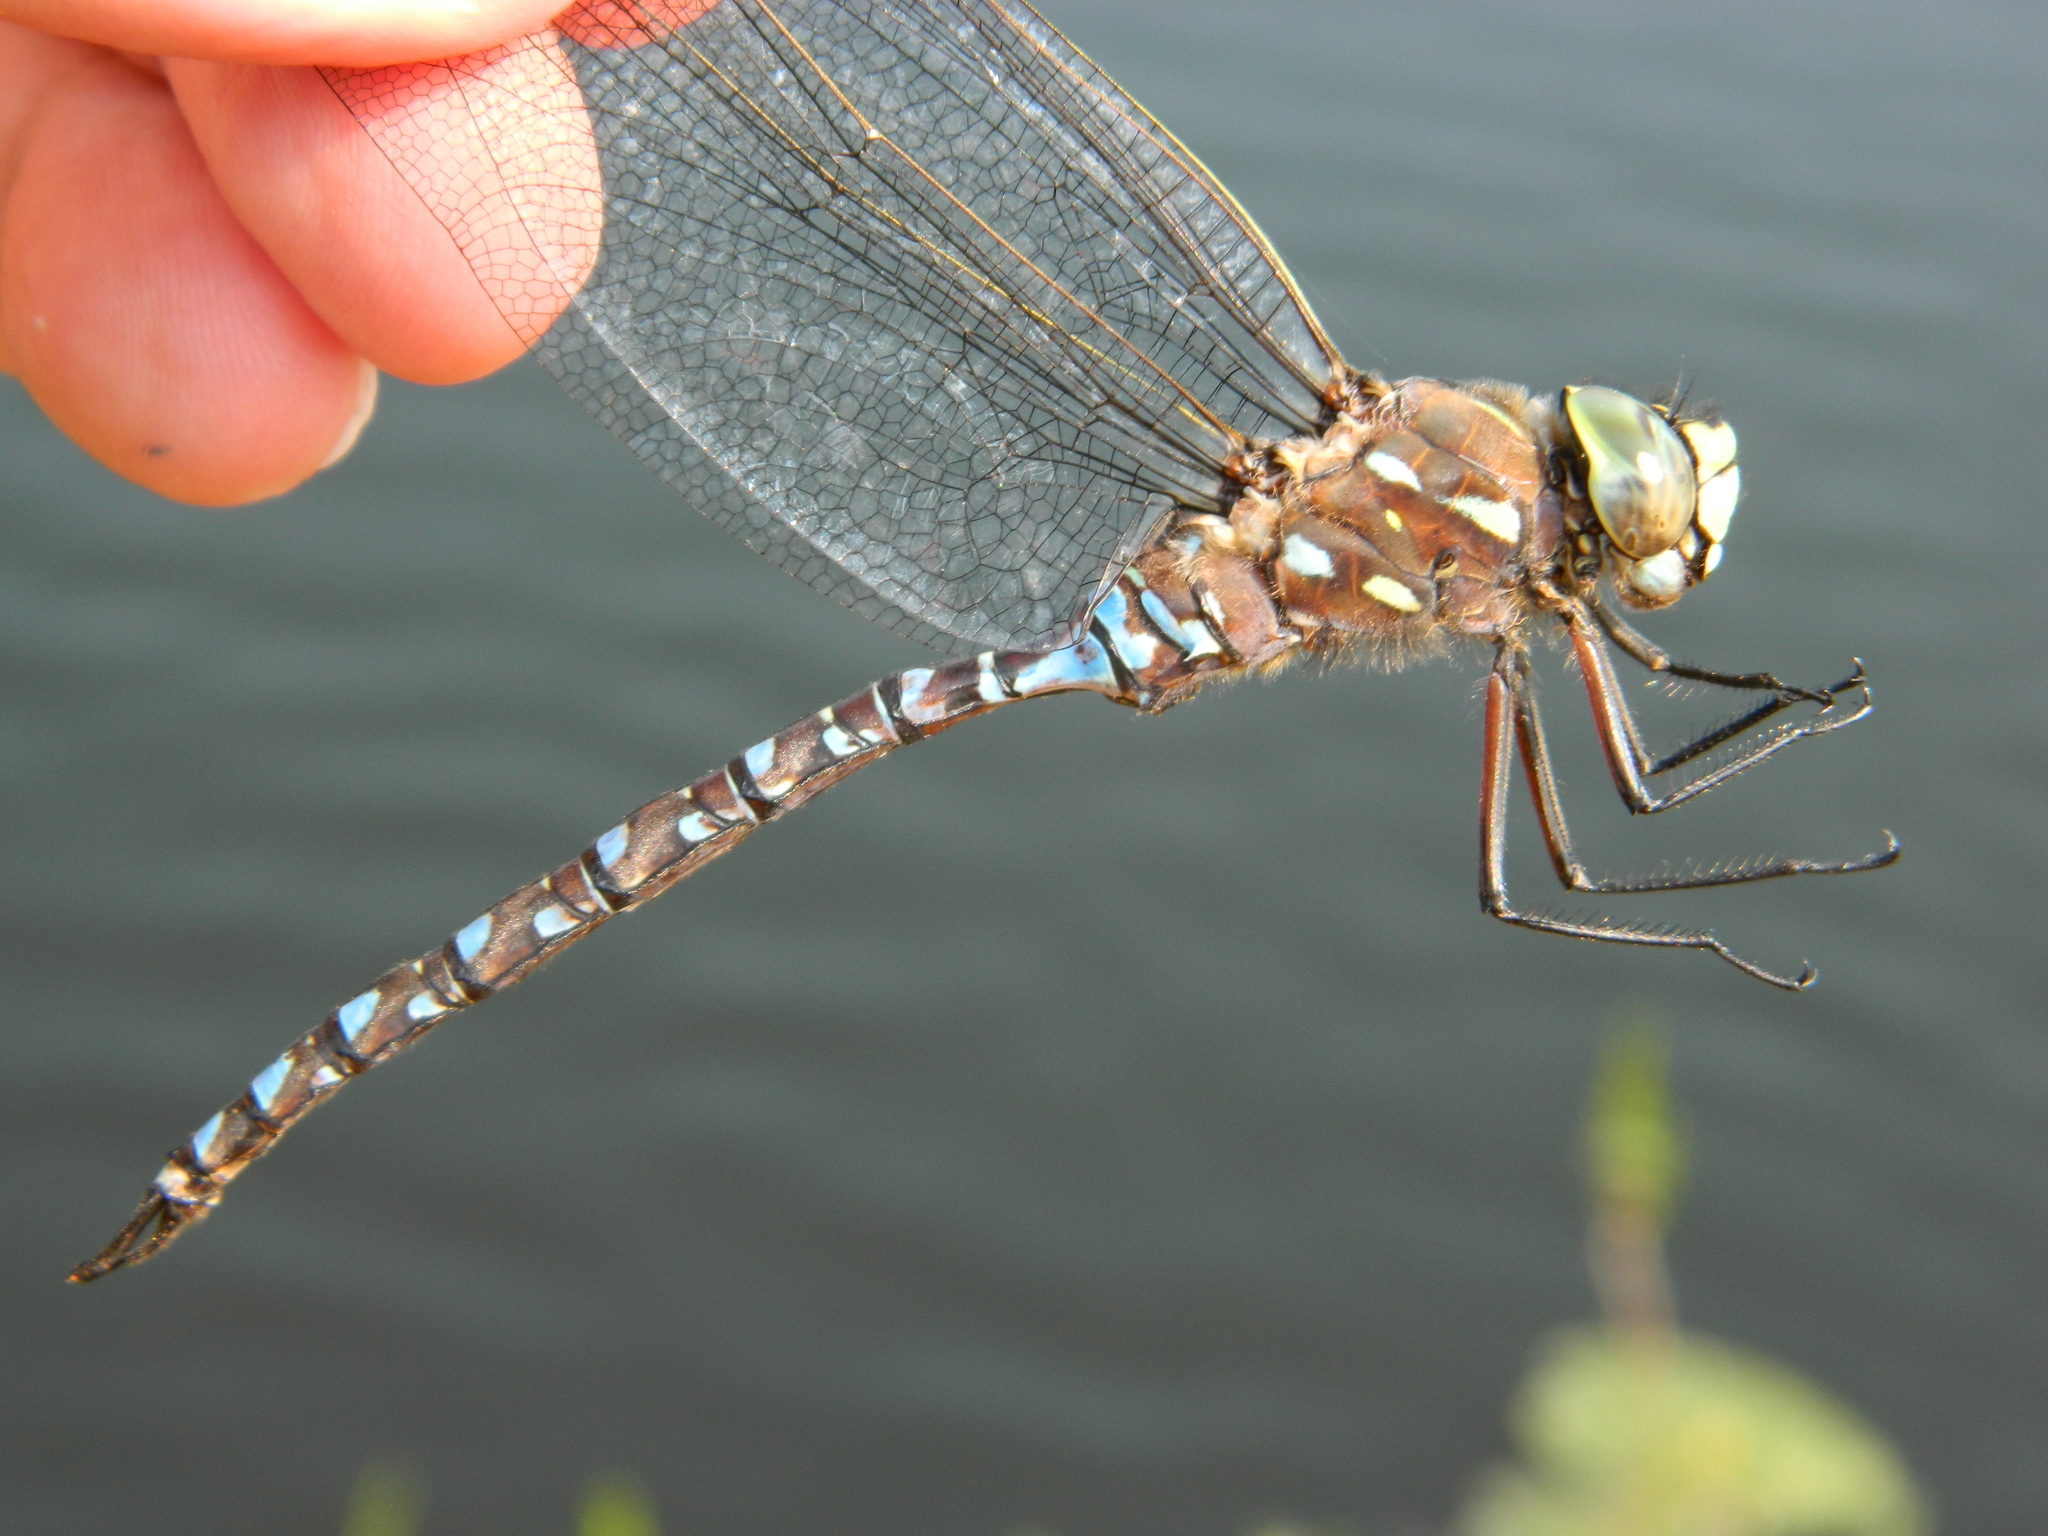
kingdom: Animalia
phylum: Arthropoda
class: Insecta
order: Odonata
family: Aeshnidae
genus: Aeshna
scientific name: Aeshna interrupta
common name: Variable darner
